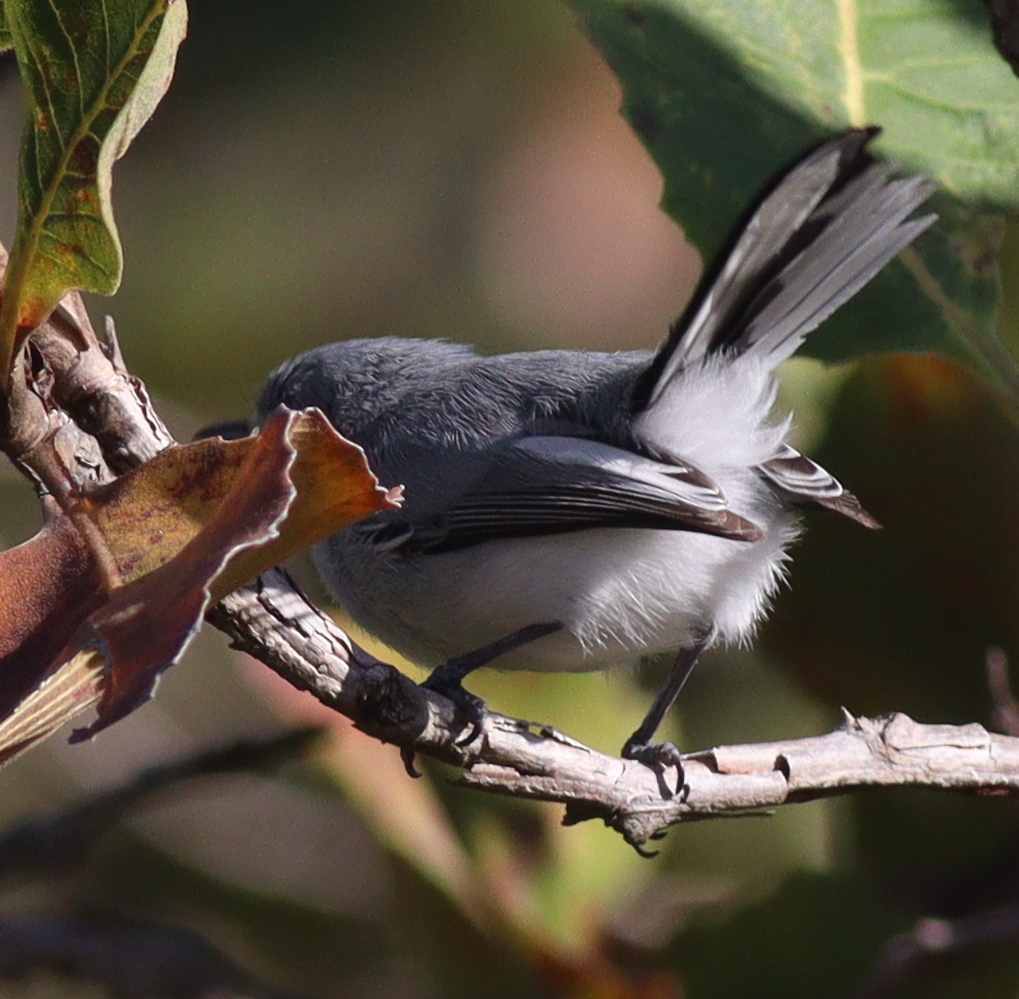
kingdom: Animalia
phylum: Chordata
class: Aves
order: Passeriformes
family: Polioptilidae
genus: Polioptila
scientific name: Polioptila dumicola
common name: Masked gnatcatcher
